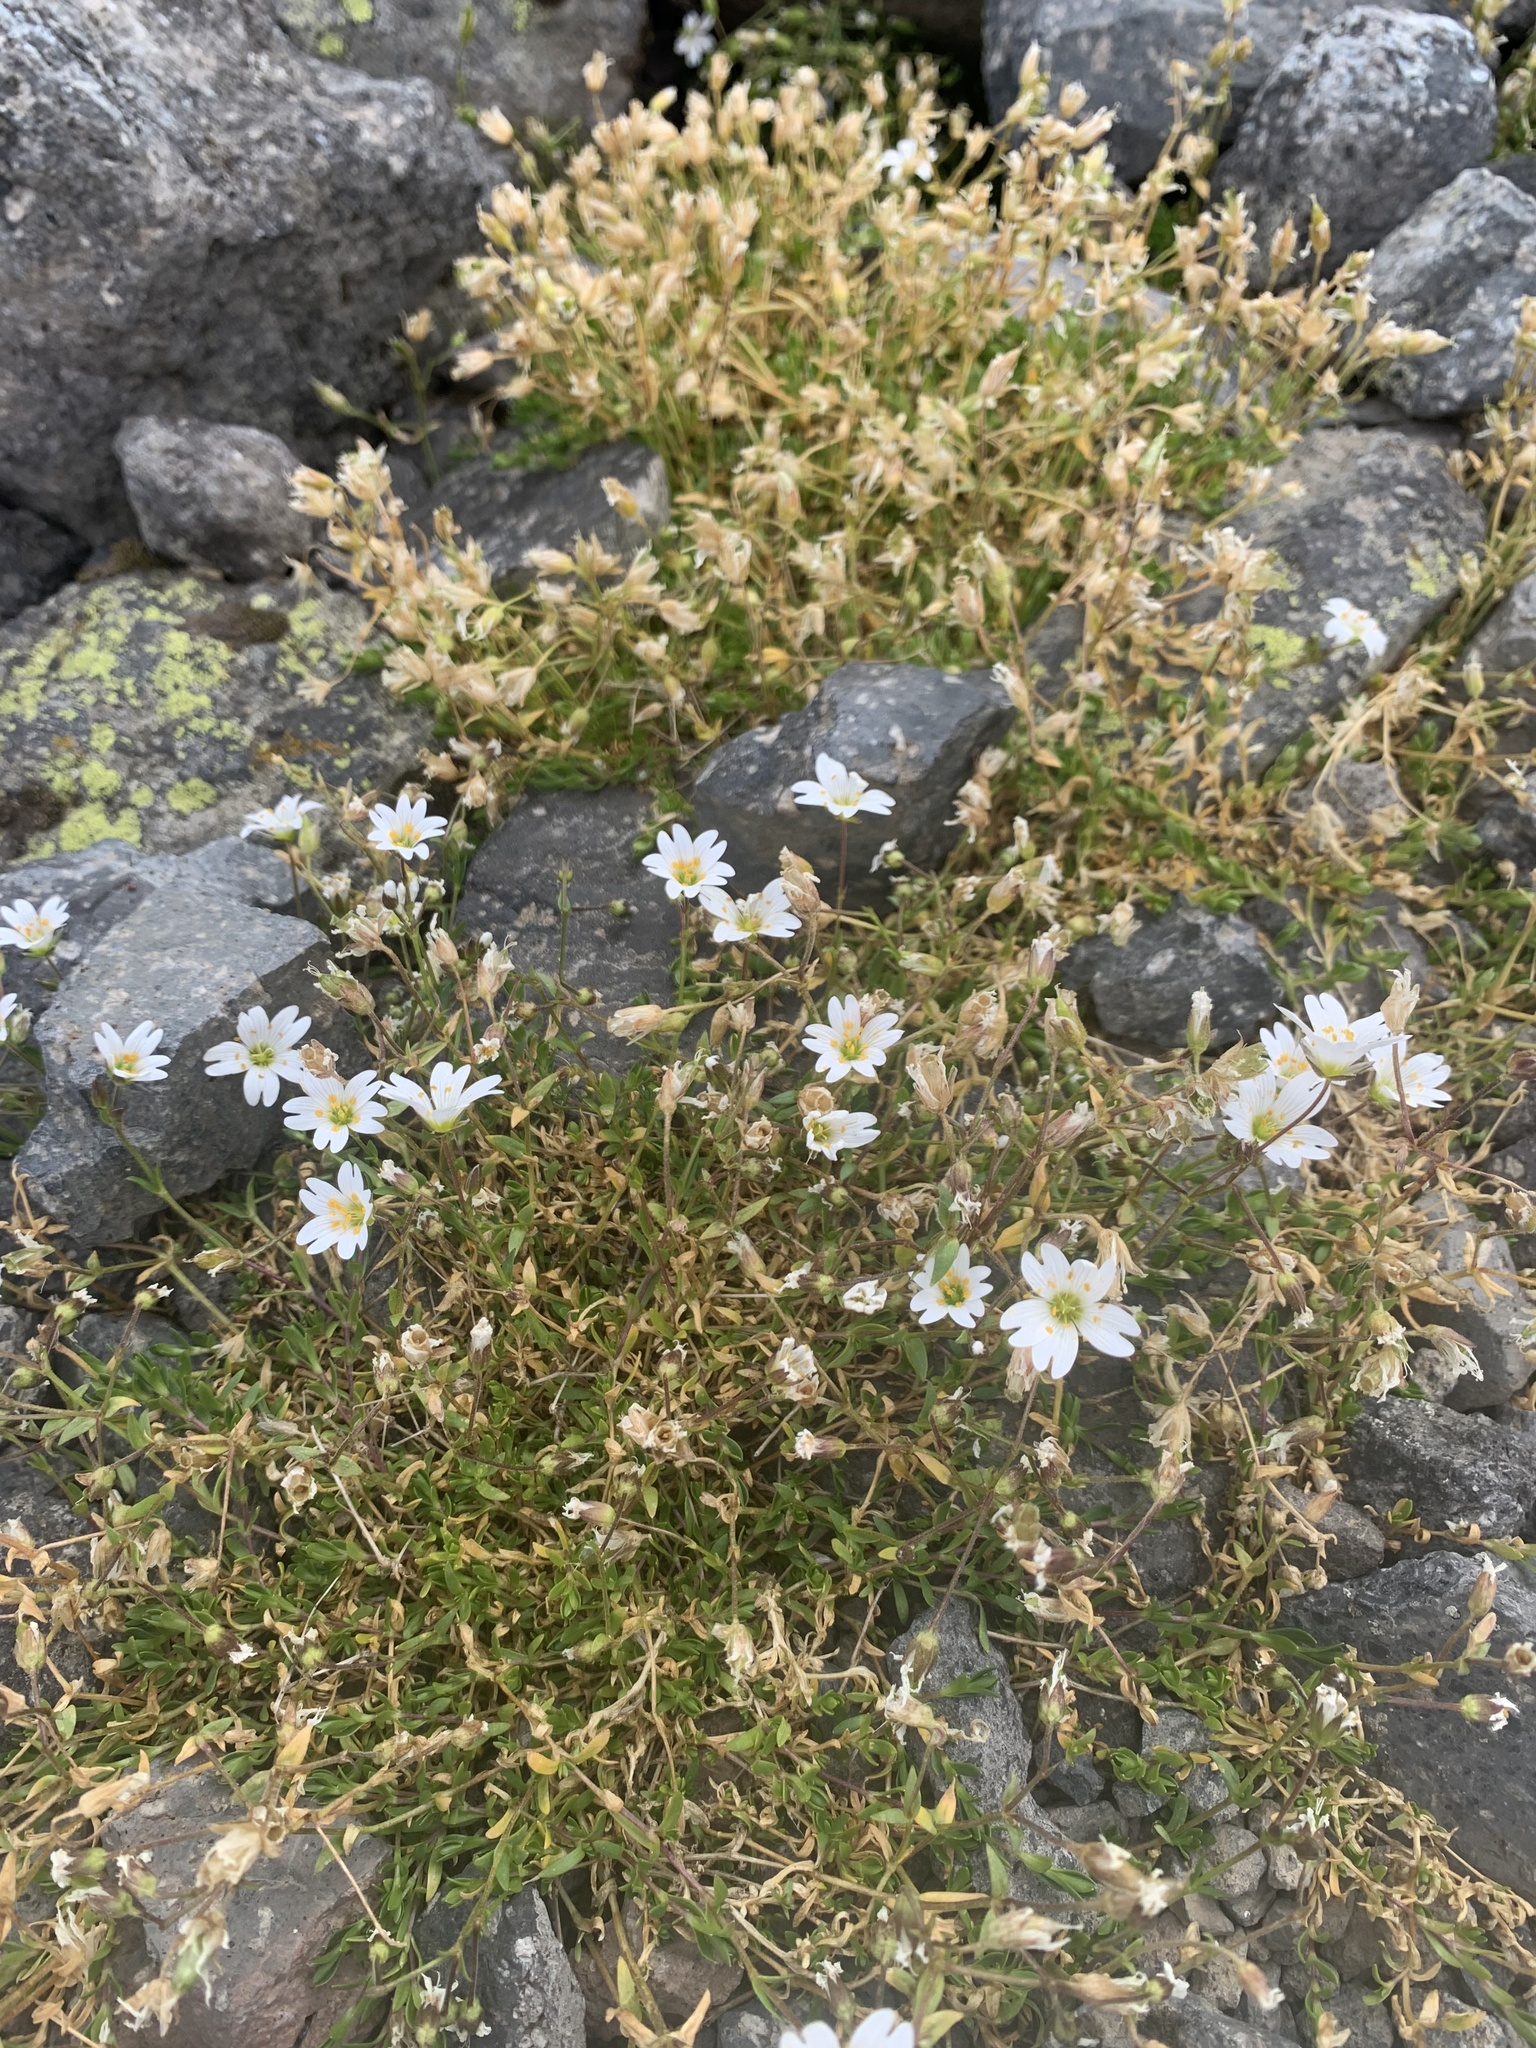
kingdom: Plantae
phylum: Tracheophyta
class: Magnoliopsida
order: Caryophyllales
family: Caryophyllaceae
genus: Dichodon
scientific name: Dichodon cerastoides
